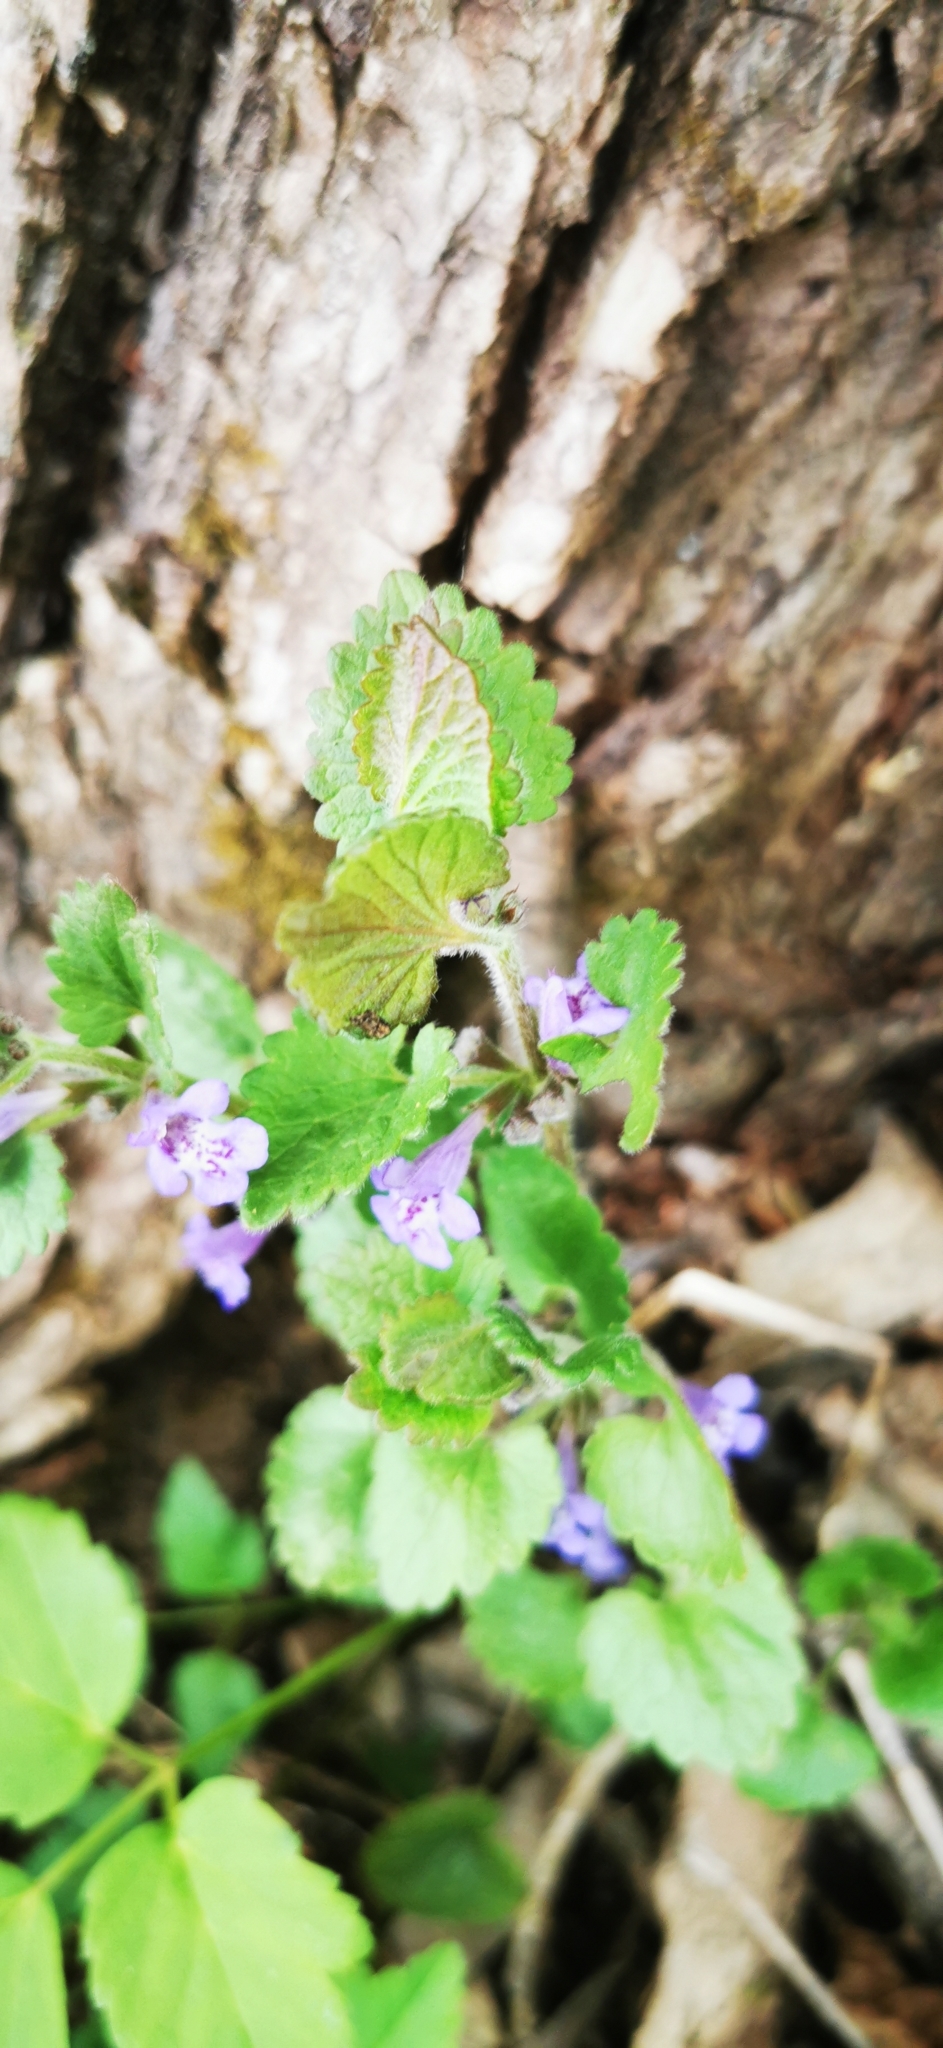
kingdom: Plantae
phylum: Tracheophyta
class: Magnoliopsida
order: Lamiales
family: Lamiaceae
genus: Glechoma
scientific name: Glechoma hederacea
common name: Ground ivy
